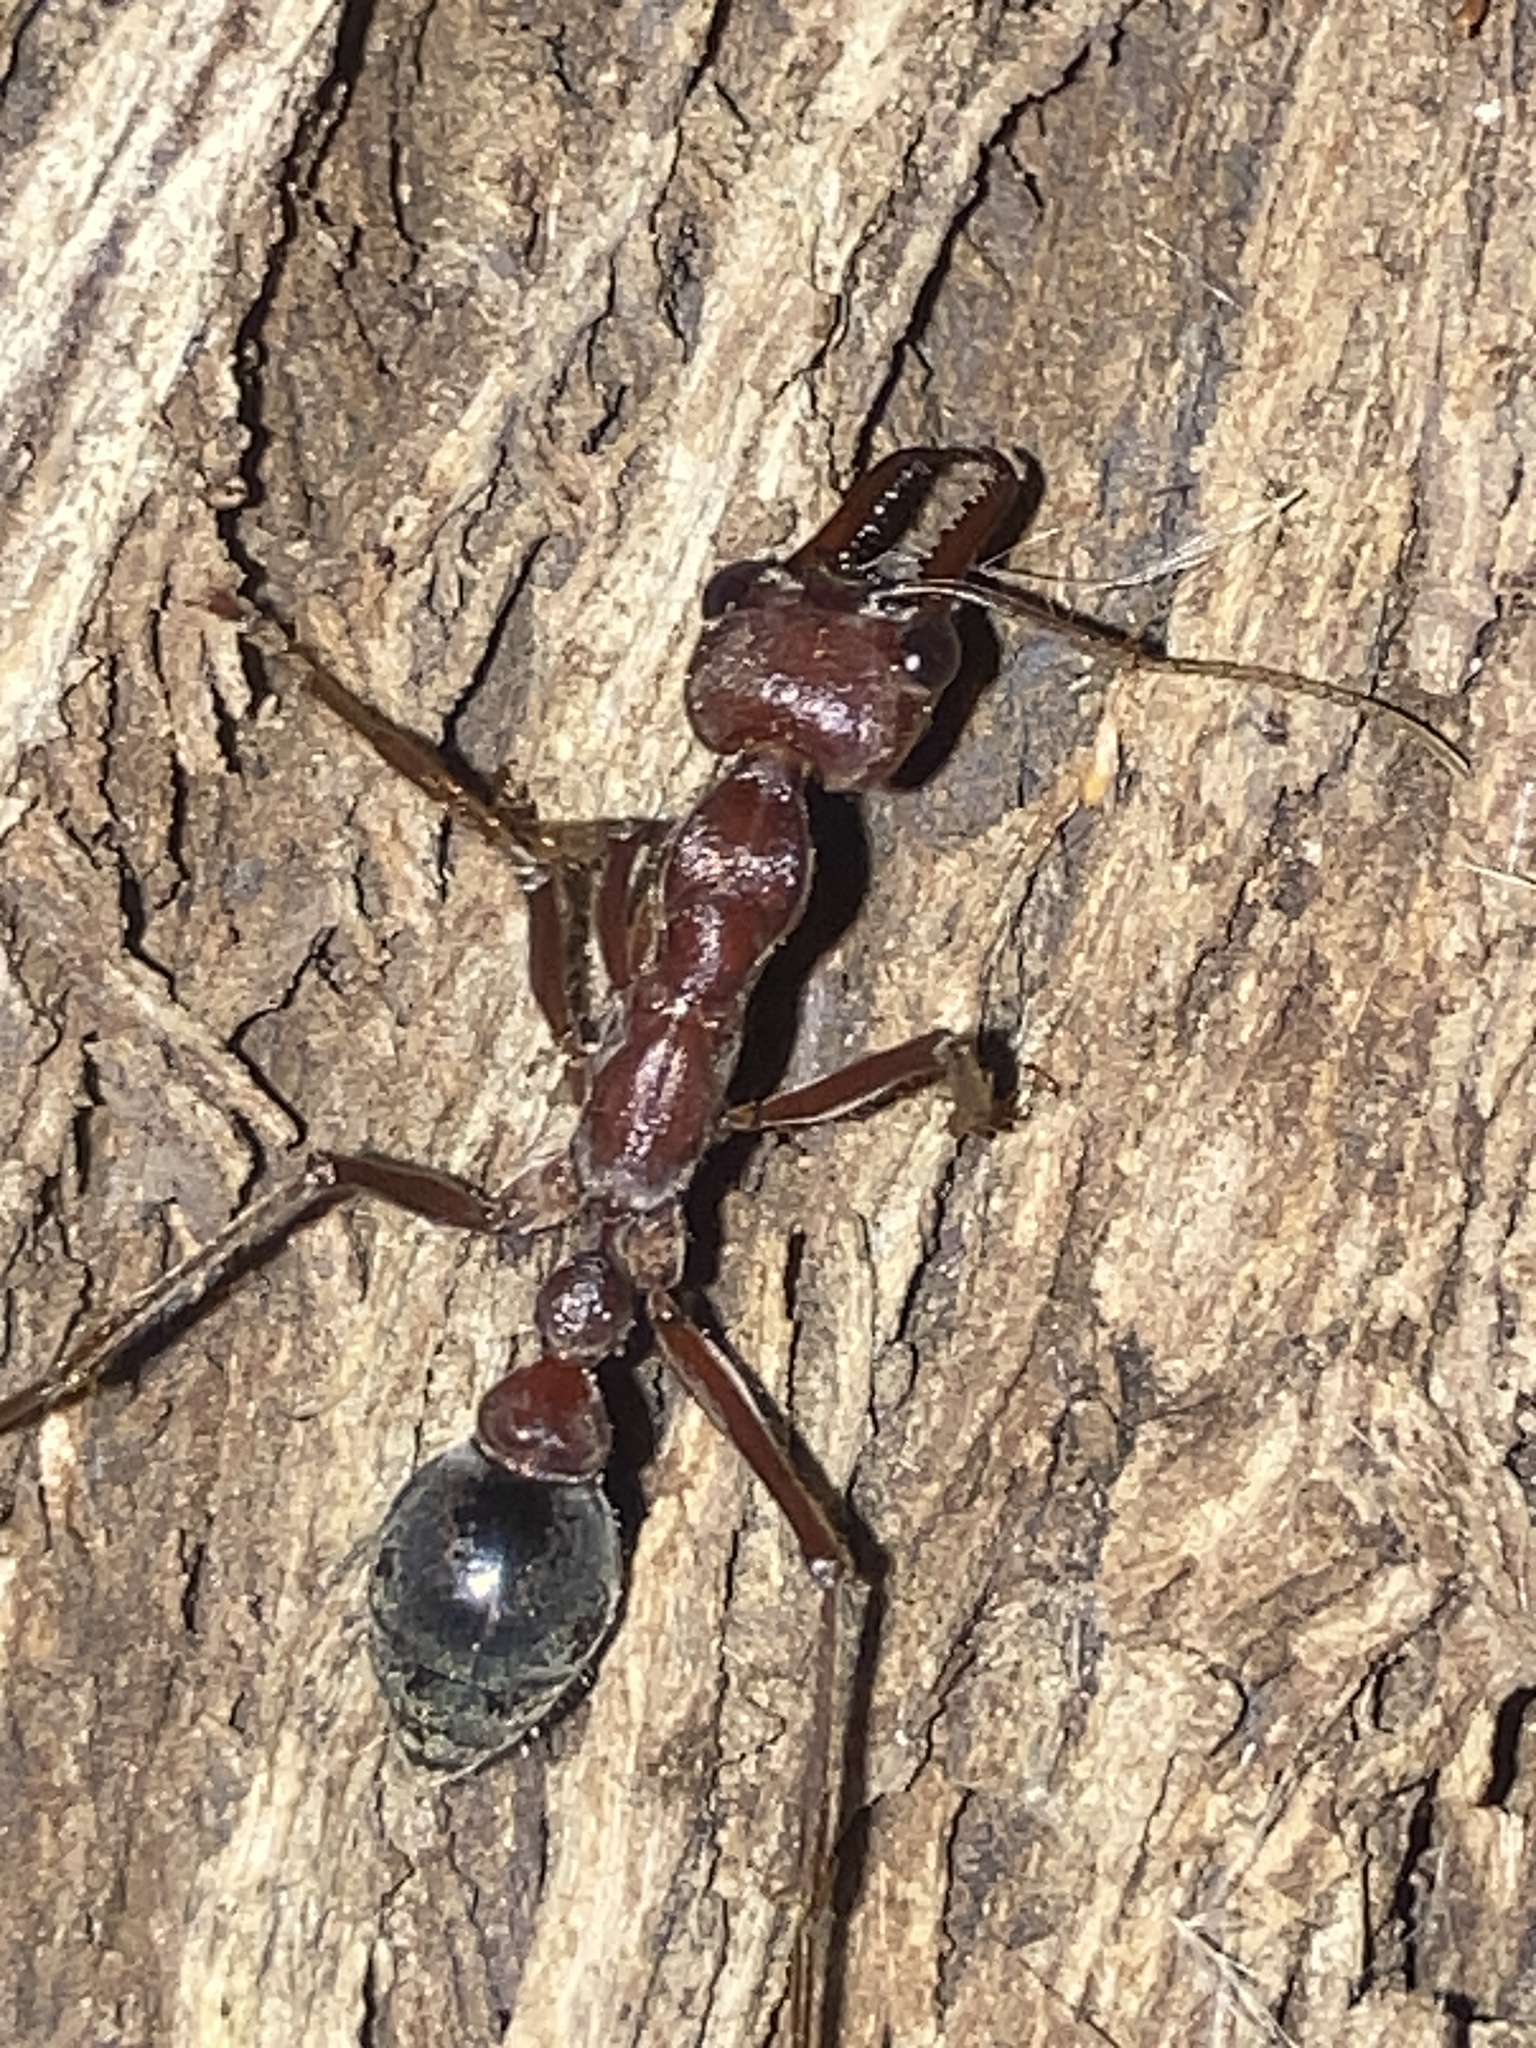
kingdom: Animalia
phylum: Arthropoda
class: Insecta
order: Hymenoptera
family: Formicidae
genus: Myrmecia
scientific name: Myrmecia brevinoda
